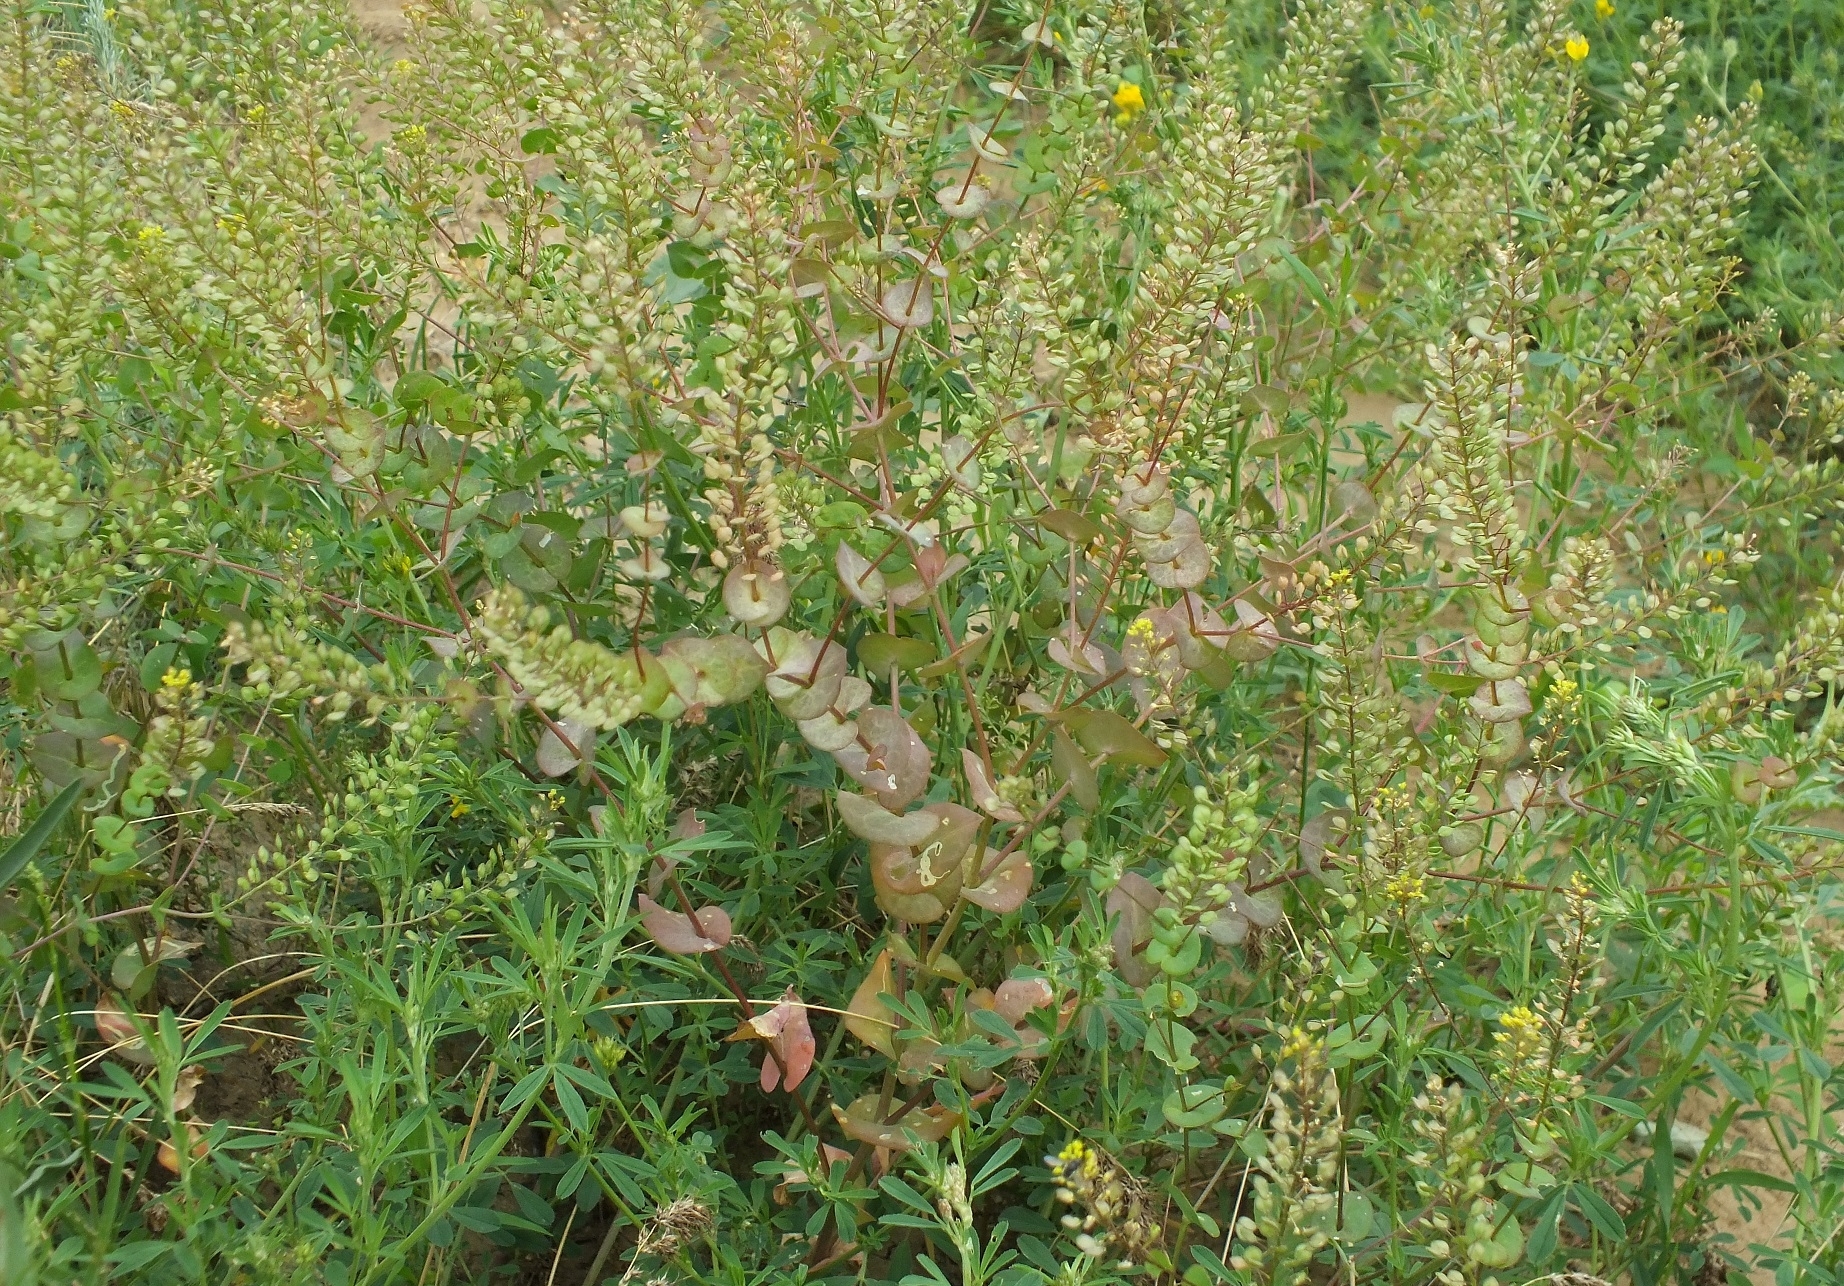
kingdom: Plantae
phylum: Tracheophyta
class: Magnoliopsida
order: Brassicales
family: Brassicaceae
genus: Lepidium
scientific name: Lepidium perfoliatum
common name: Perfoliate pepperwort
